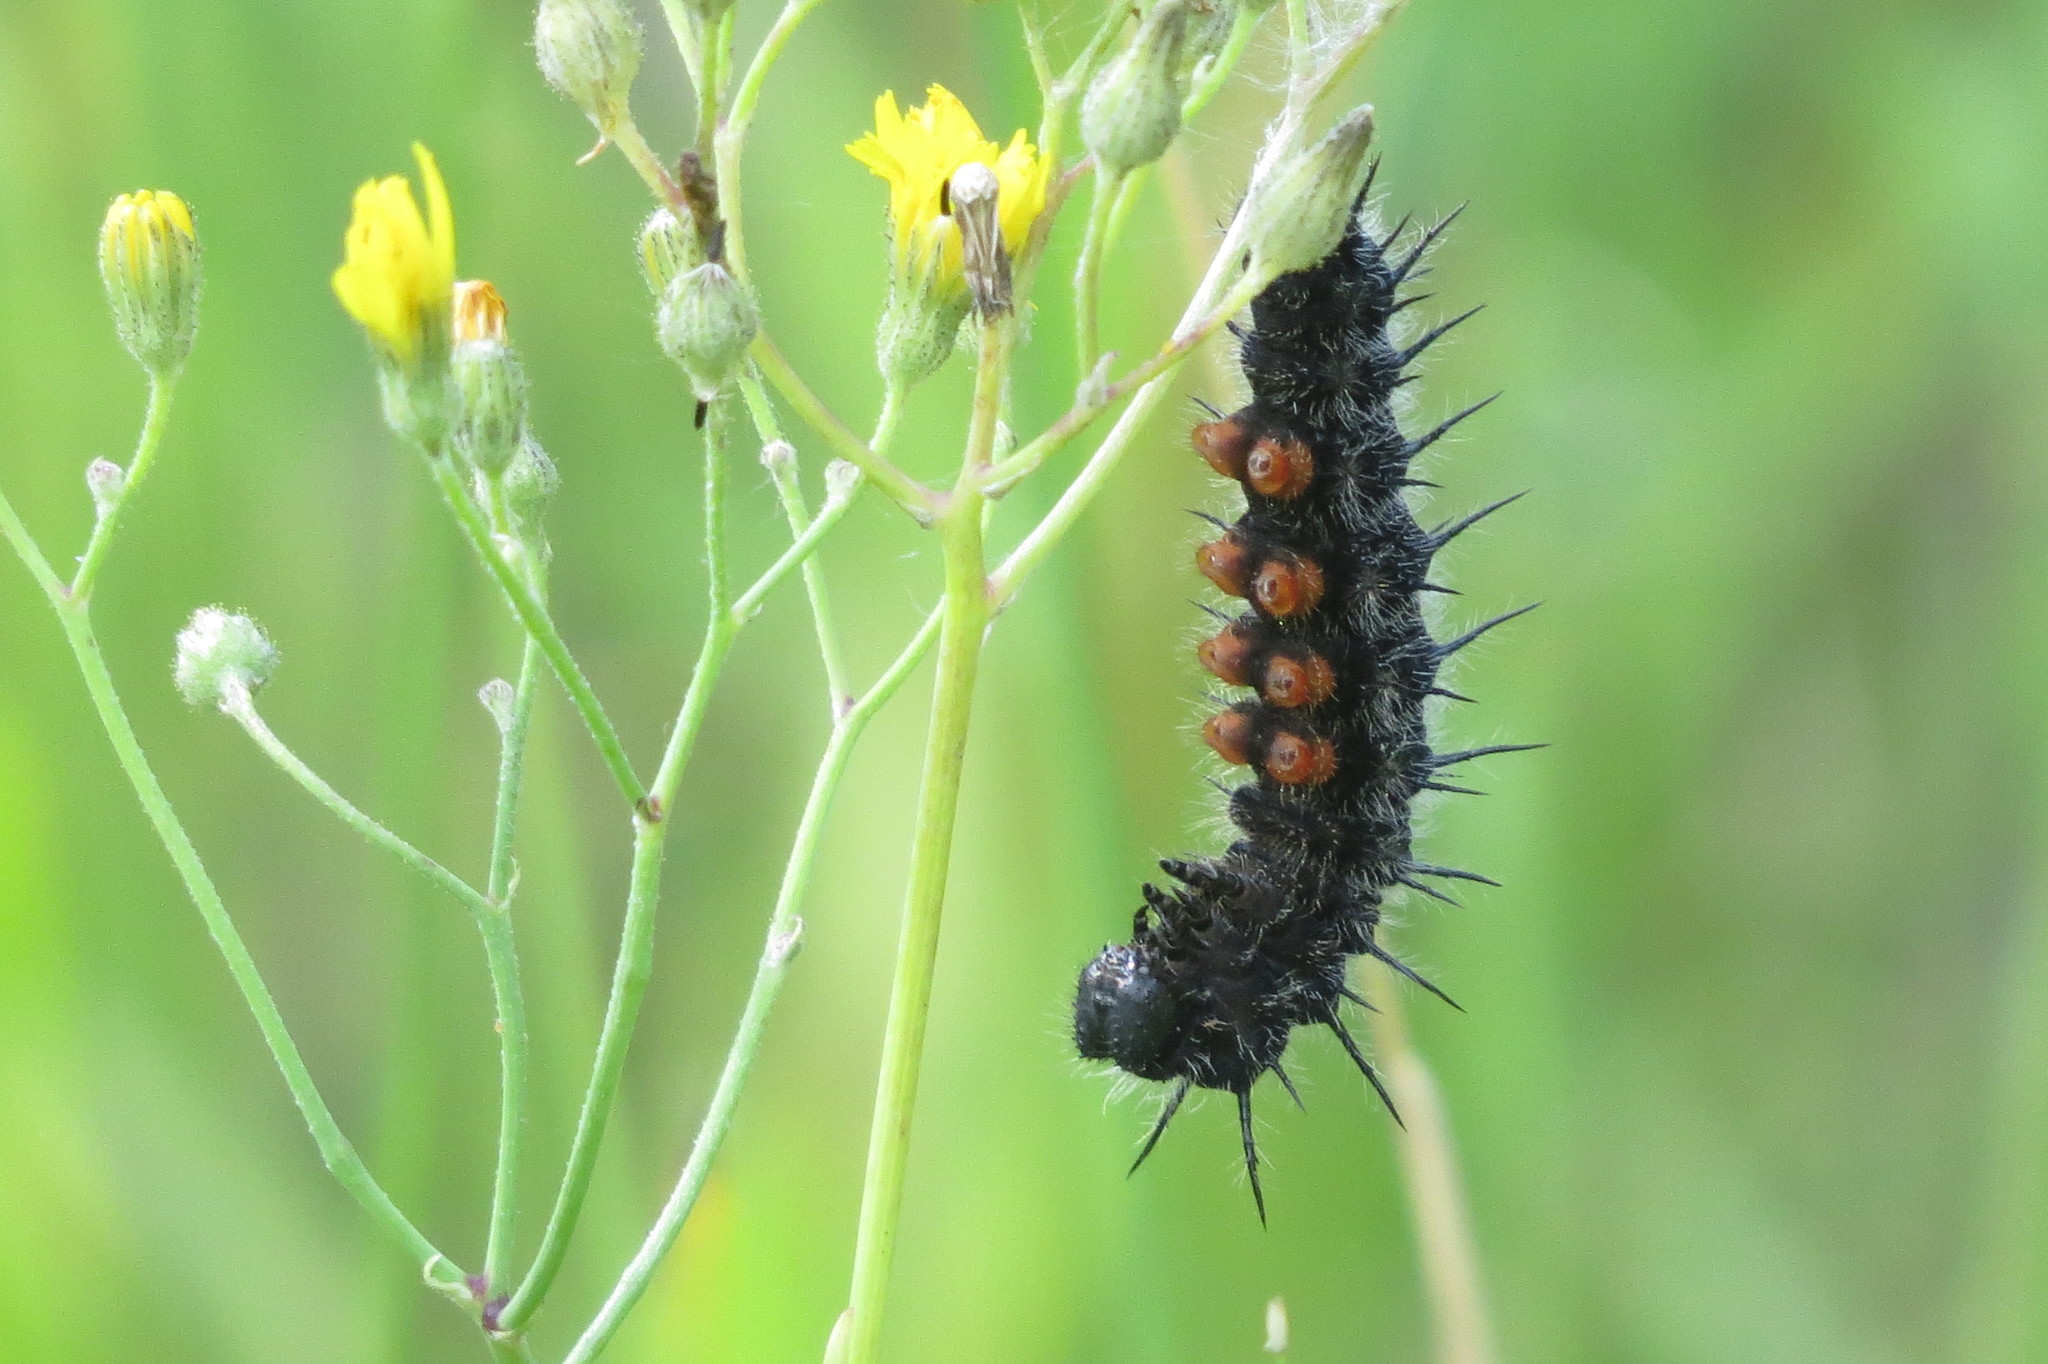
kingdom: Animalia
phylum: Arthropoda
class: Insecta
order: Lepidoptera
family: Nymphalidae
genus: Nymphalis
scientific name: Nymphalis antiopa
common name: Camberwell beauty
